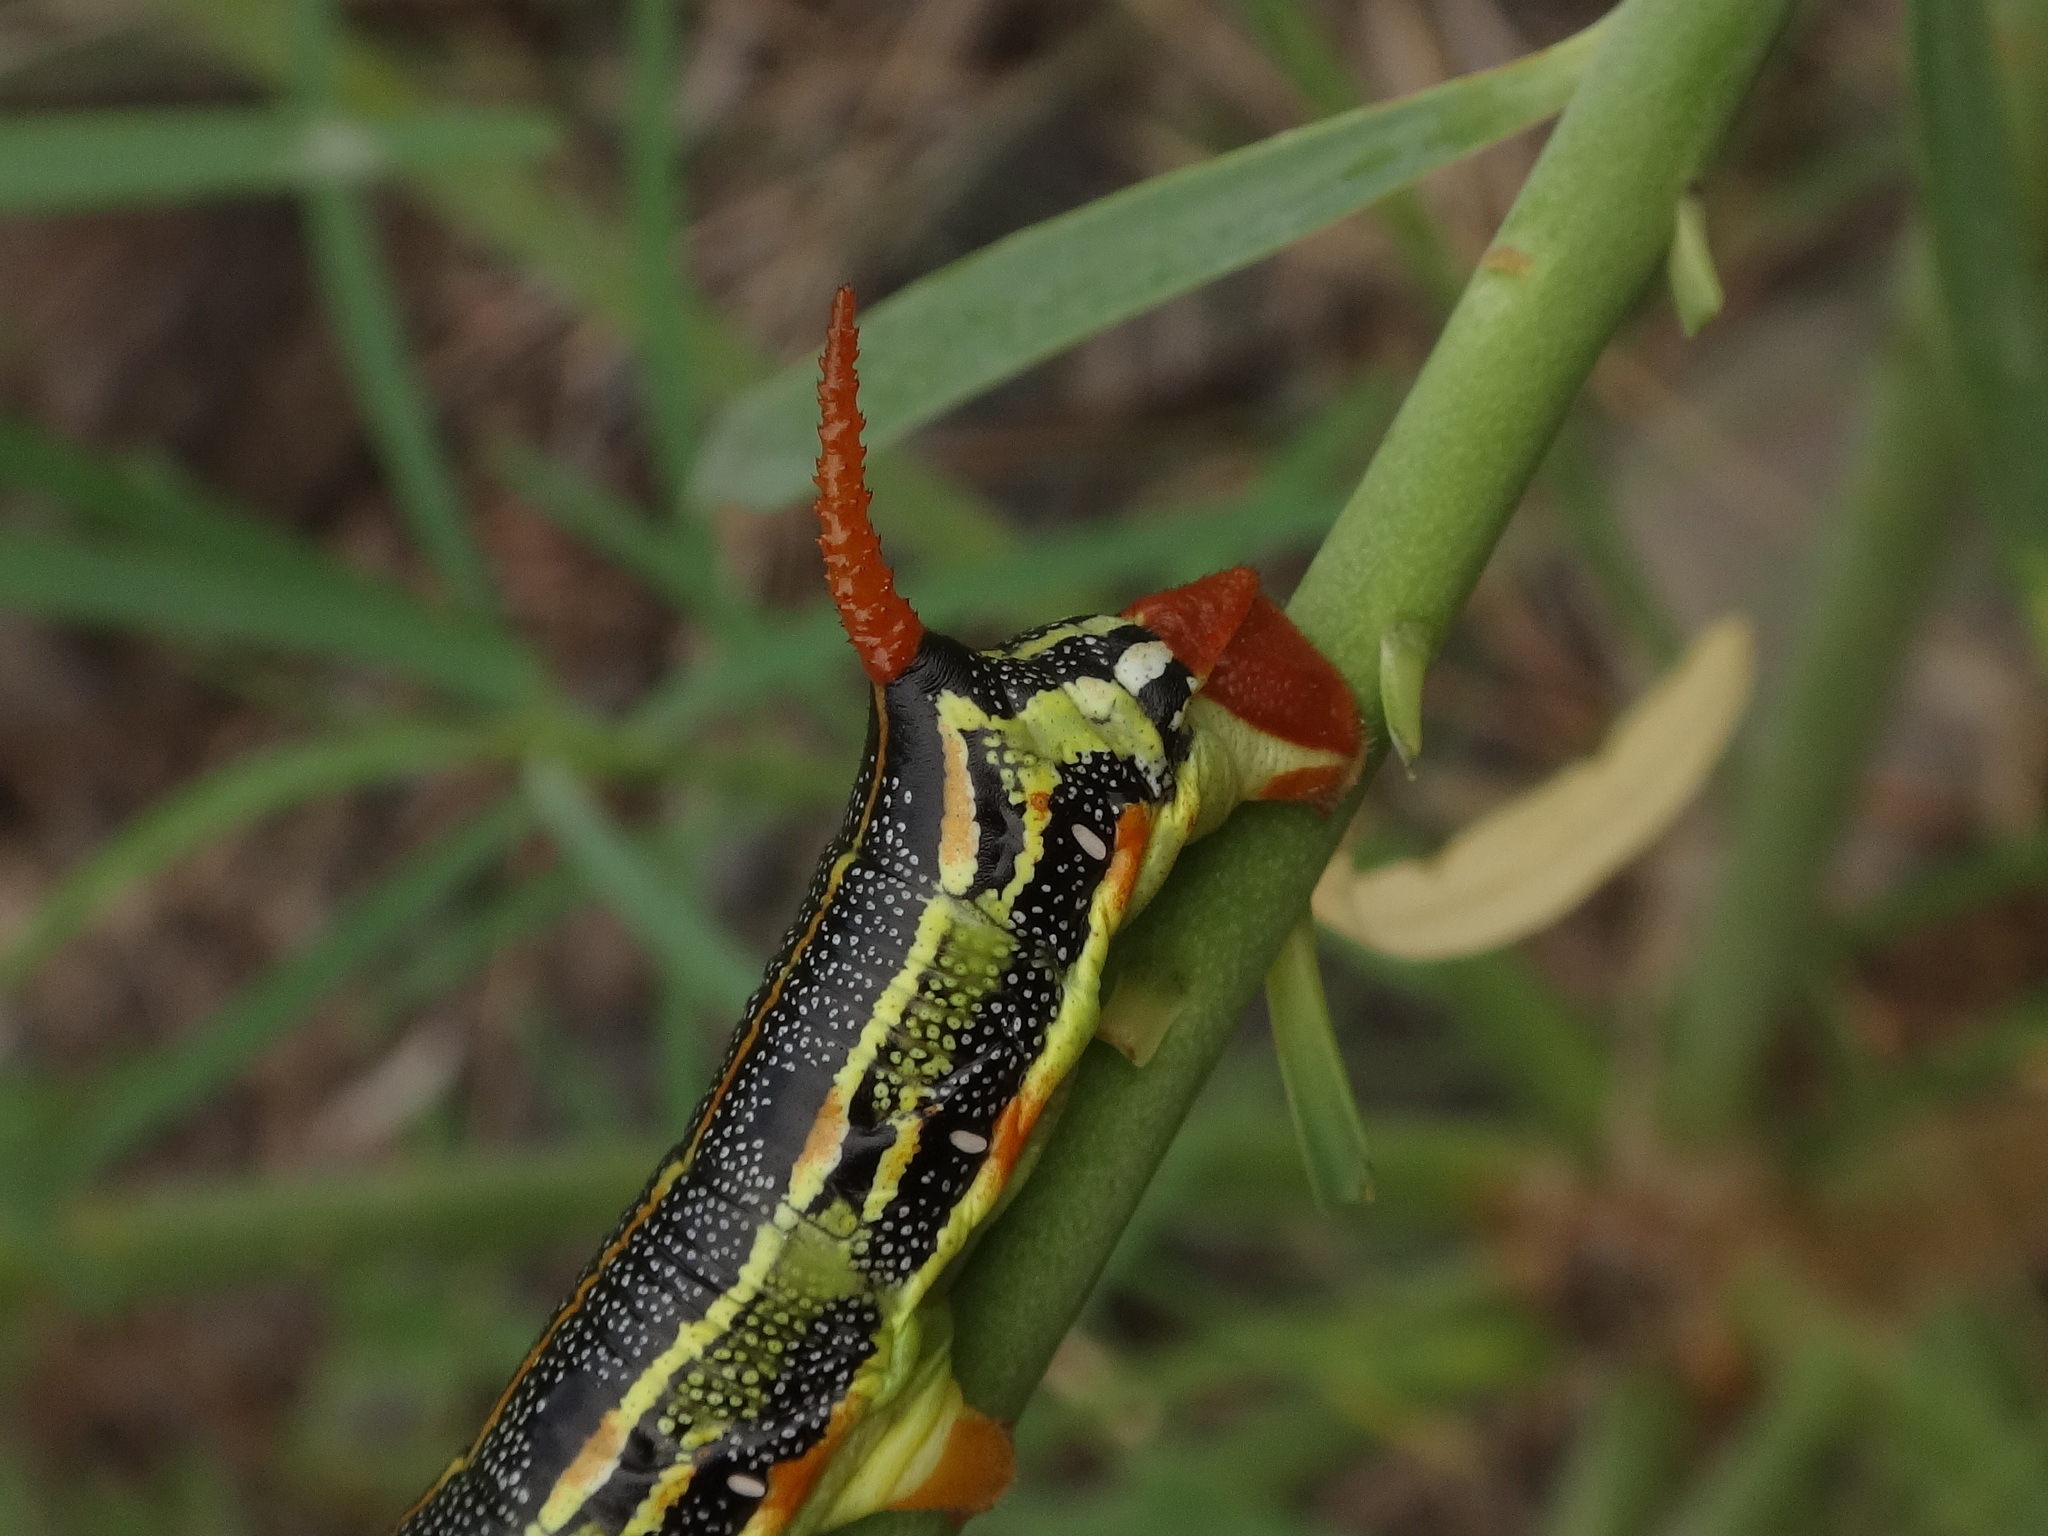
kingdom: Animalia
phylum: Arthropoda
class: Insecta
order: Lepidoptera
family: Sphingidae
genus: Hyles
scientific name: Hyles tithymali
